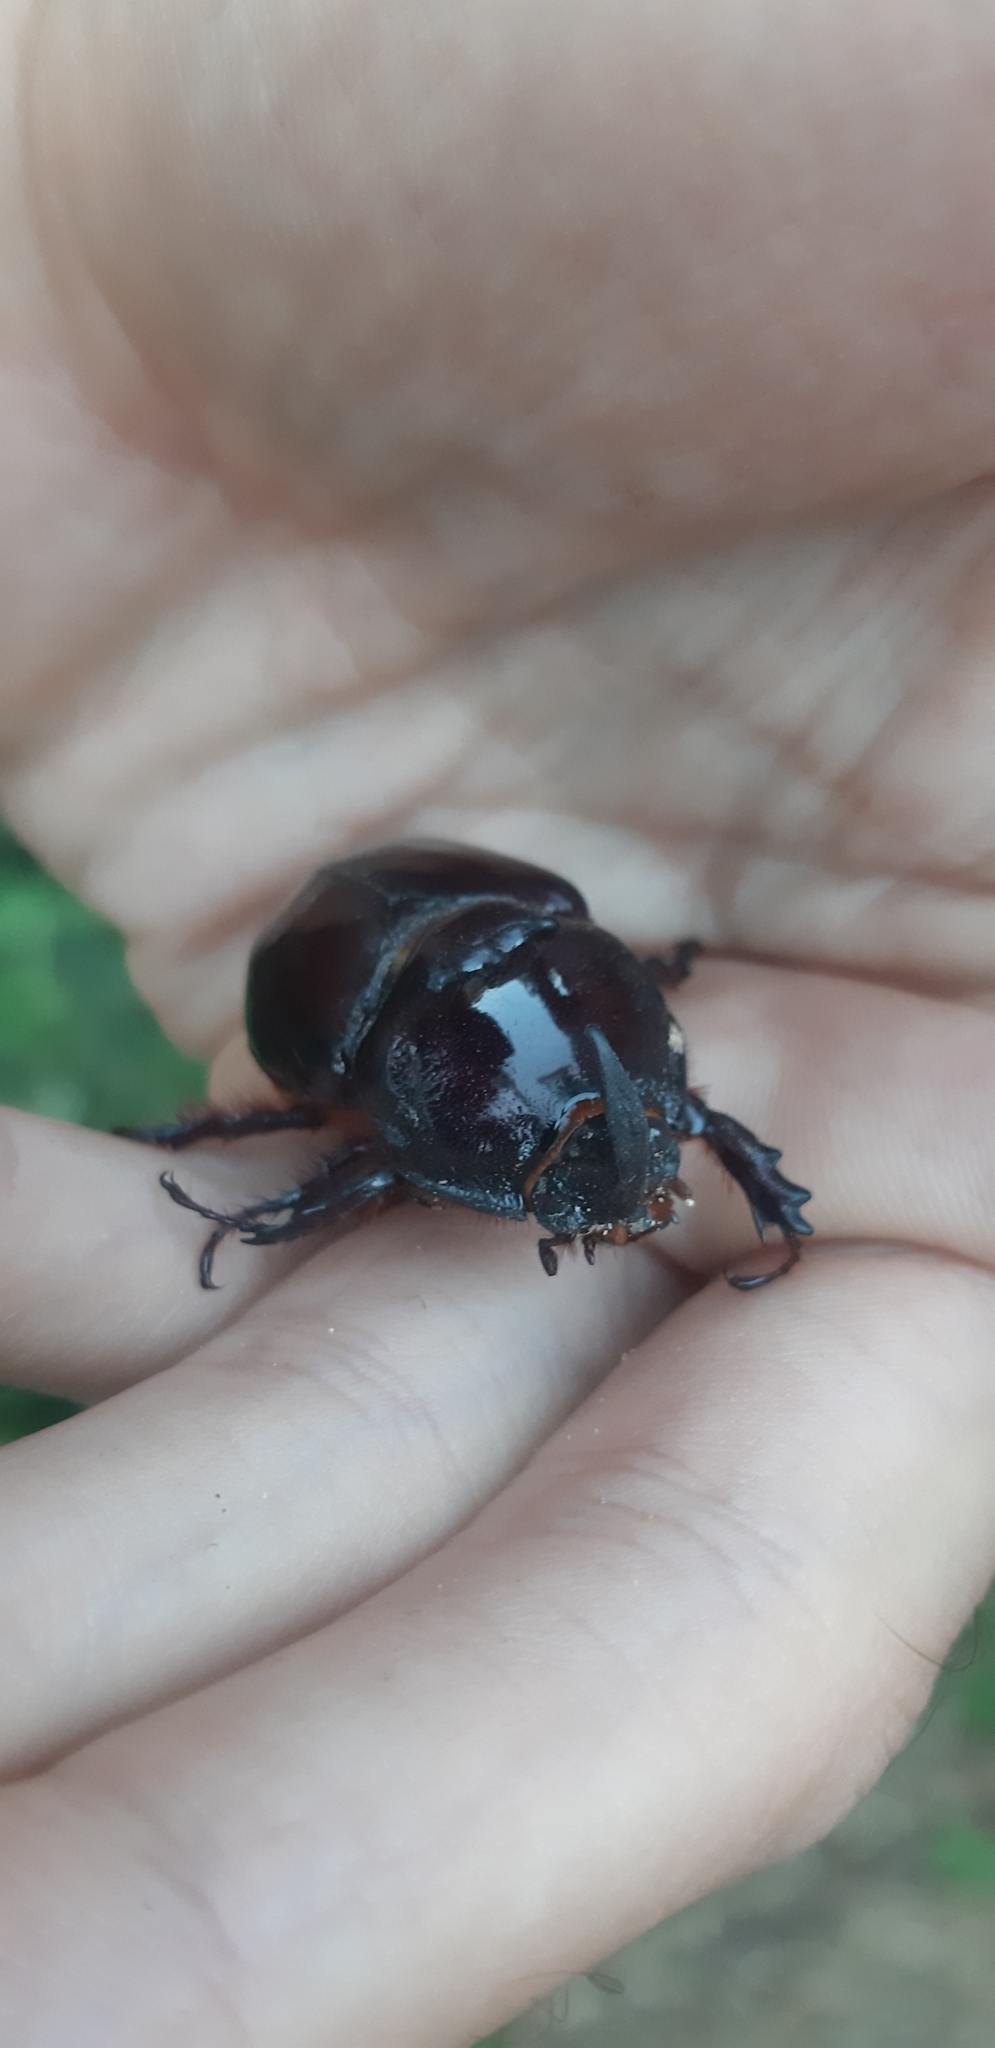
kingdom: Animalia
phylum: Arthropoda
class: Insecta
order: Coleoptera
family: Scarabaeidae
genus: Oryctes
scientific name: Oryctes nasicornis
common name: European rhinoceros beetle
